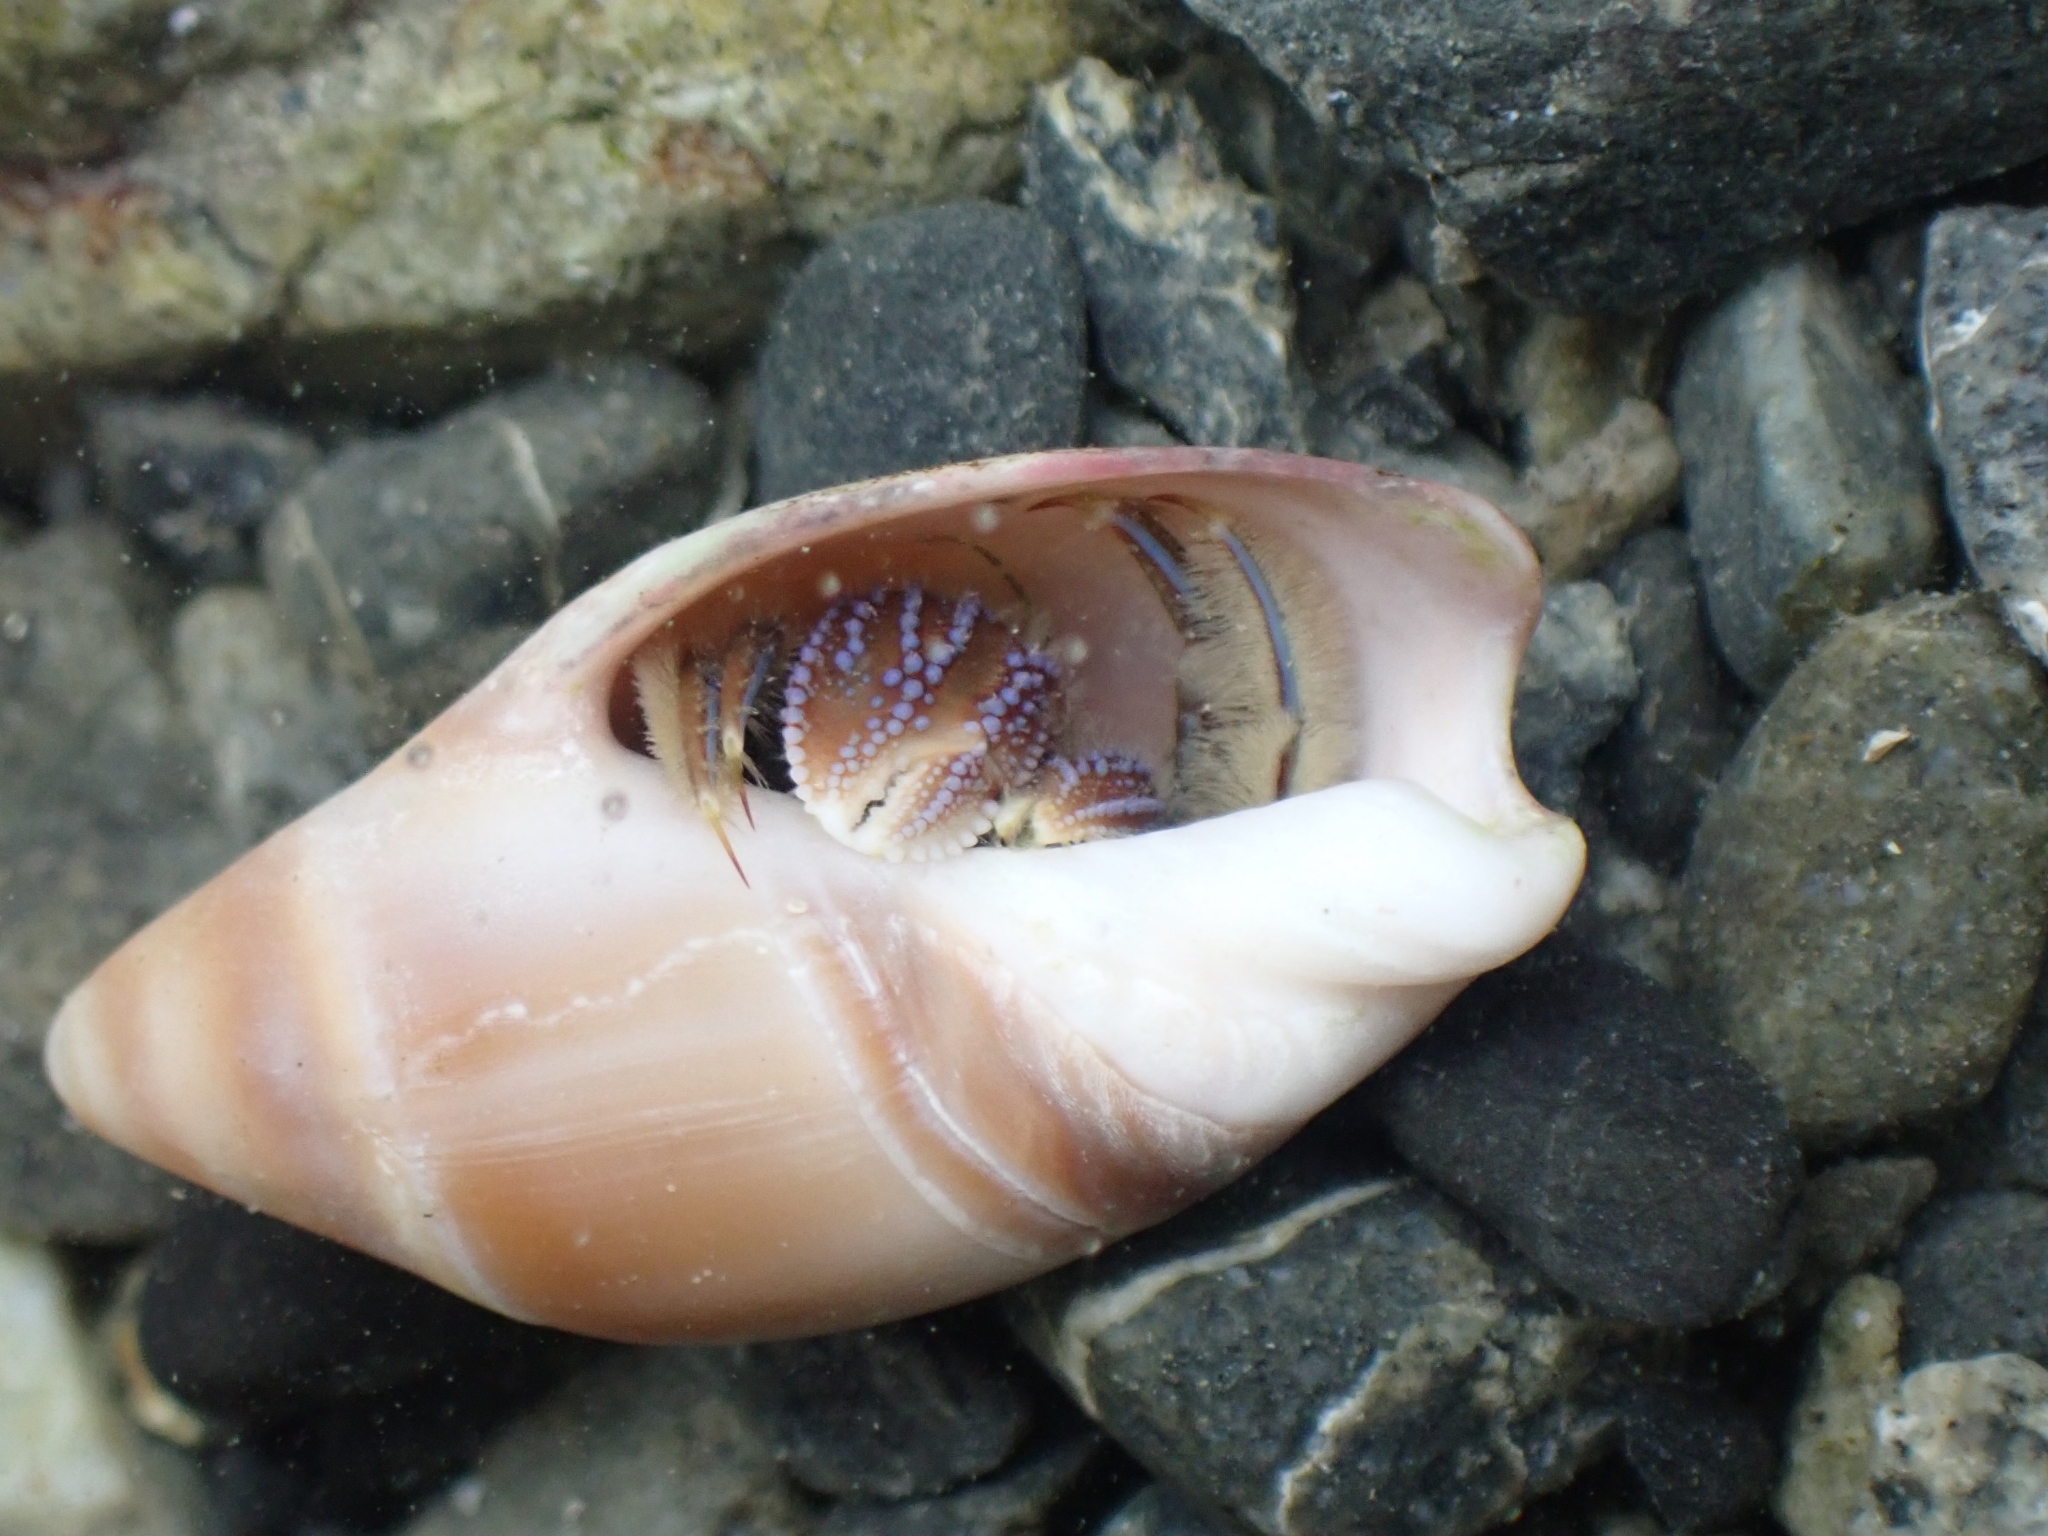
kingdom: Animalia
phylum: Arthropoda
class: Malacostraca
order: Decapoda
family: Paguridae
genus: Pagurus
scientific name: Pagurus novizealandiae
